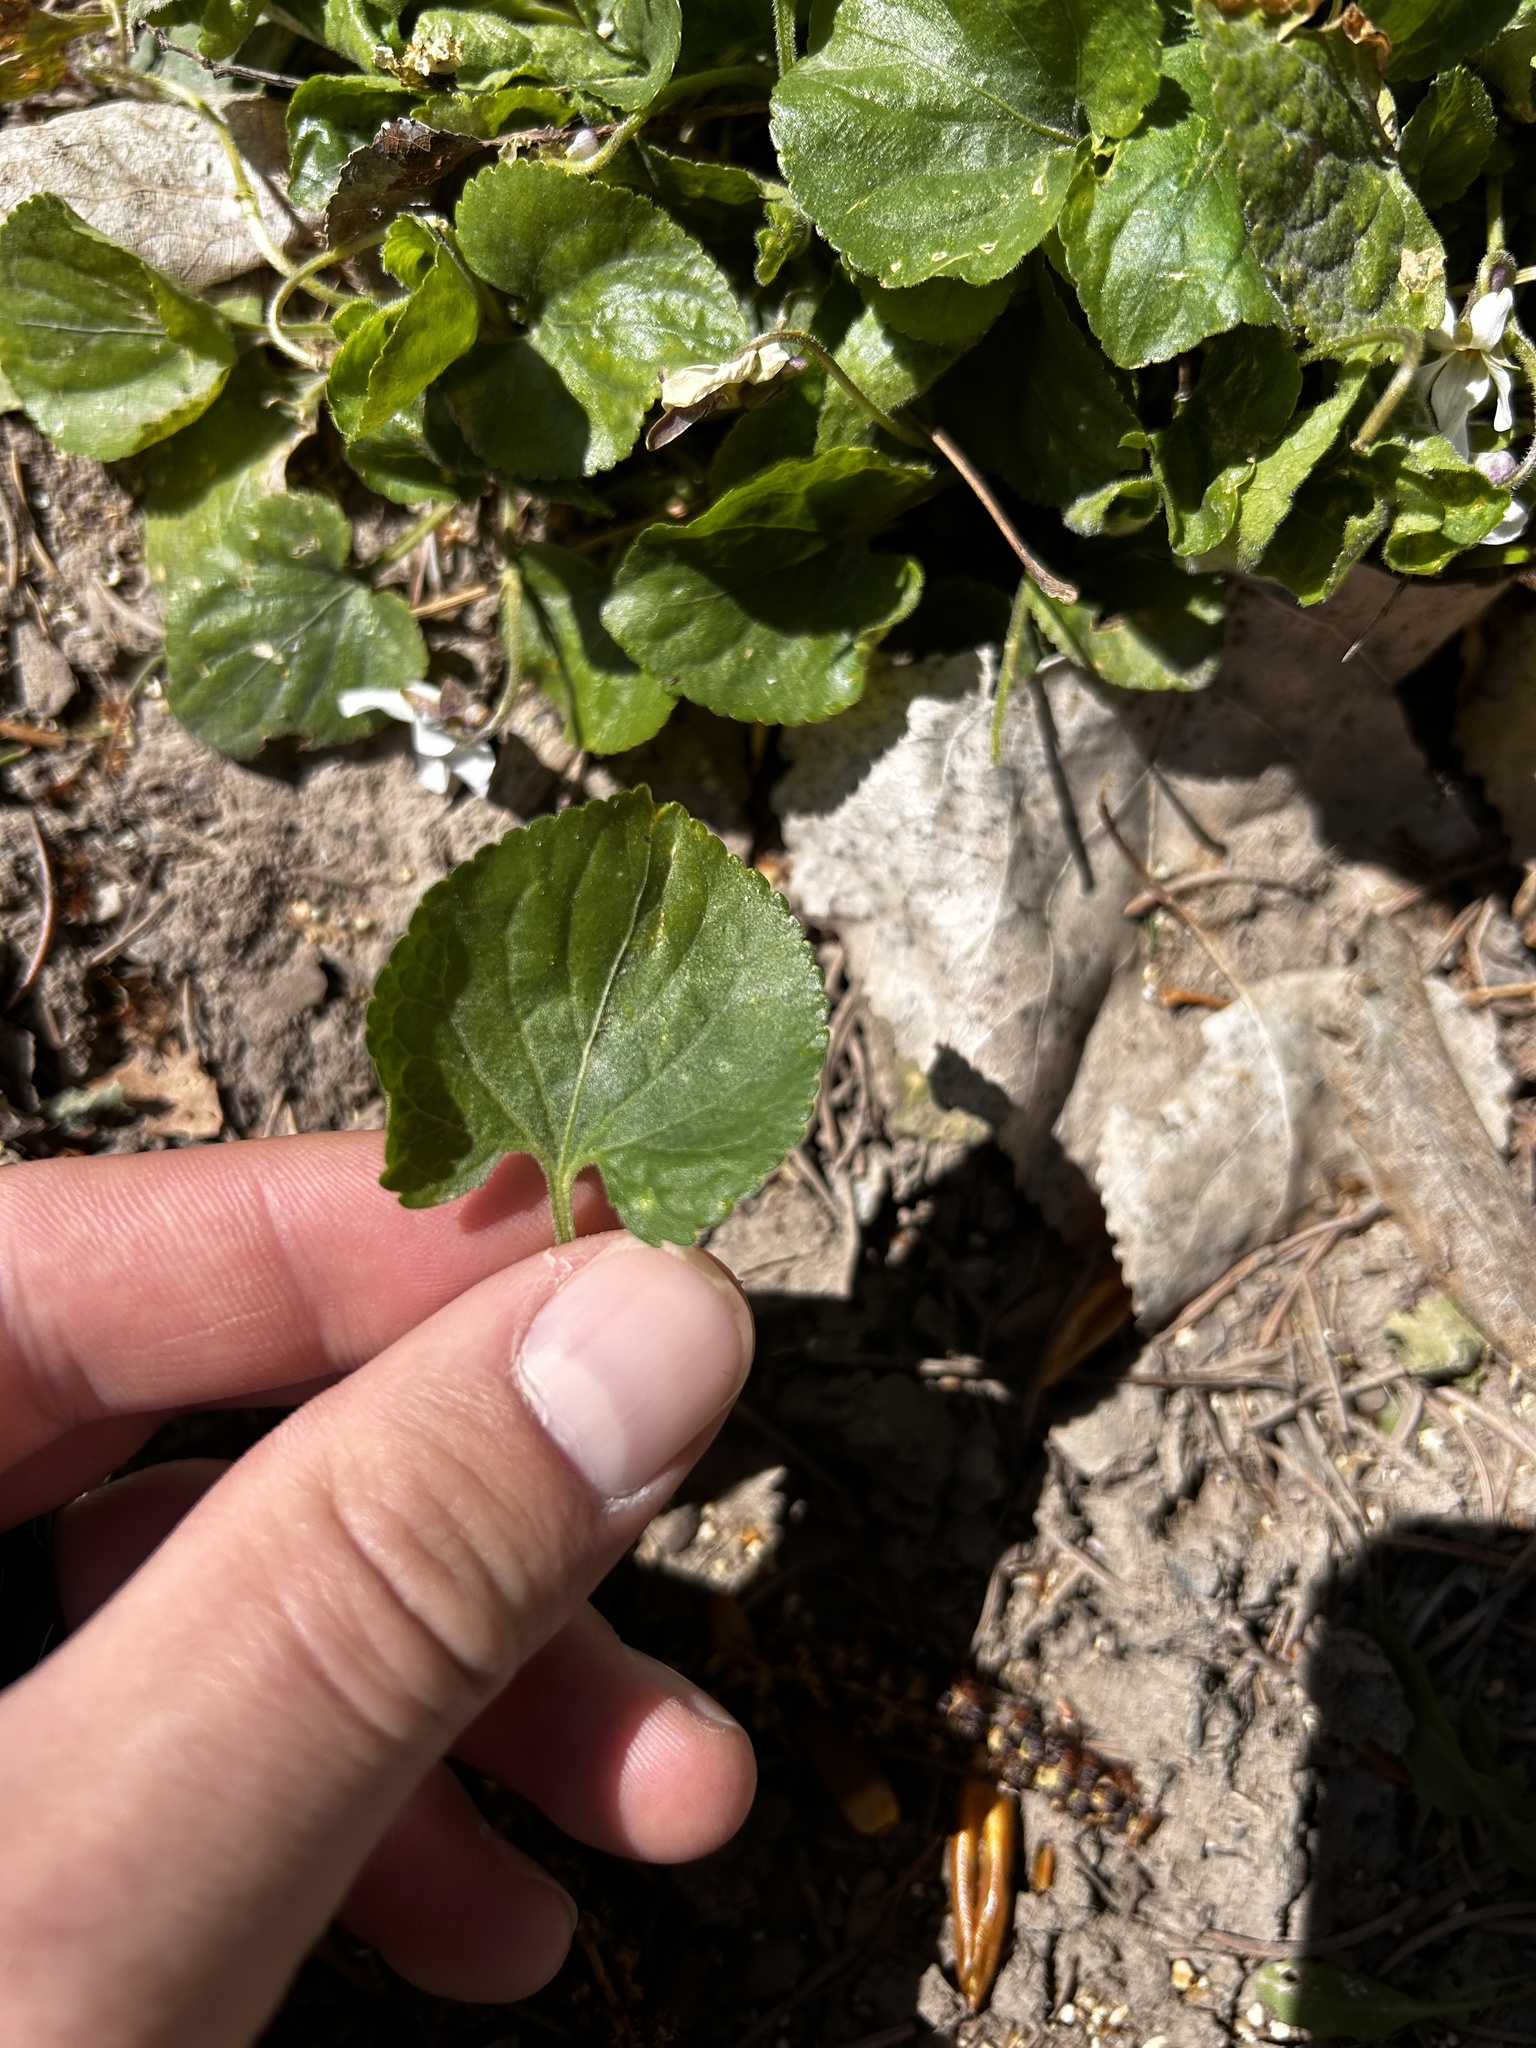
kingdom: Plantae
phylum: Tracheophyta
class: Magnoliopsida
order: Malpighiales
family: Violaceae
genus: Viola
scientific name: Viola odorata
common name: Sweet violet
